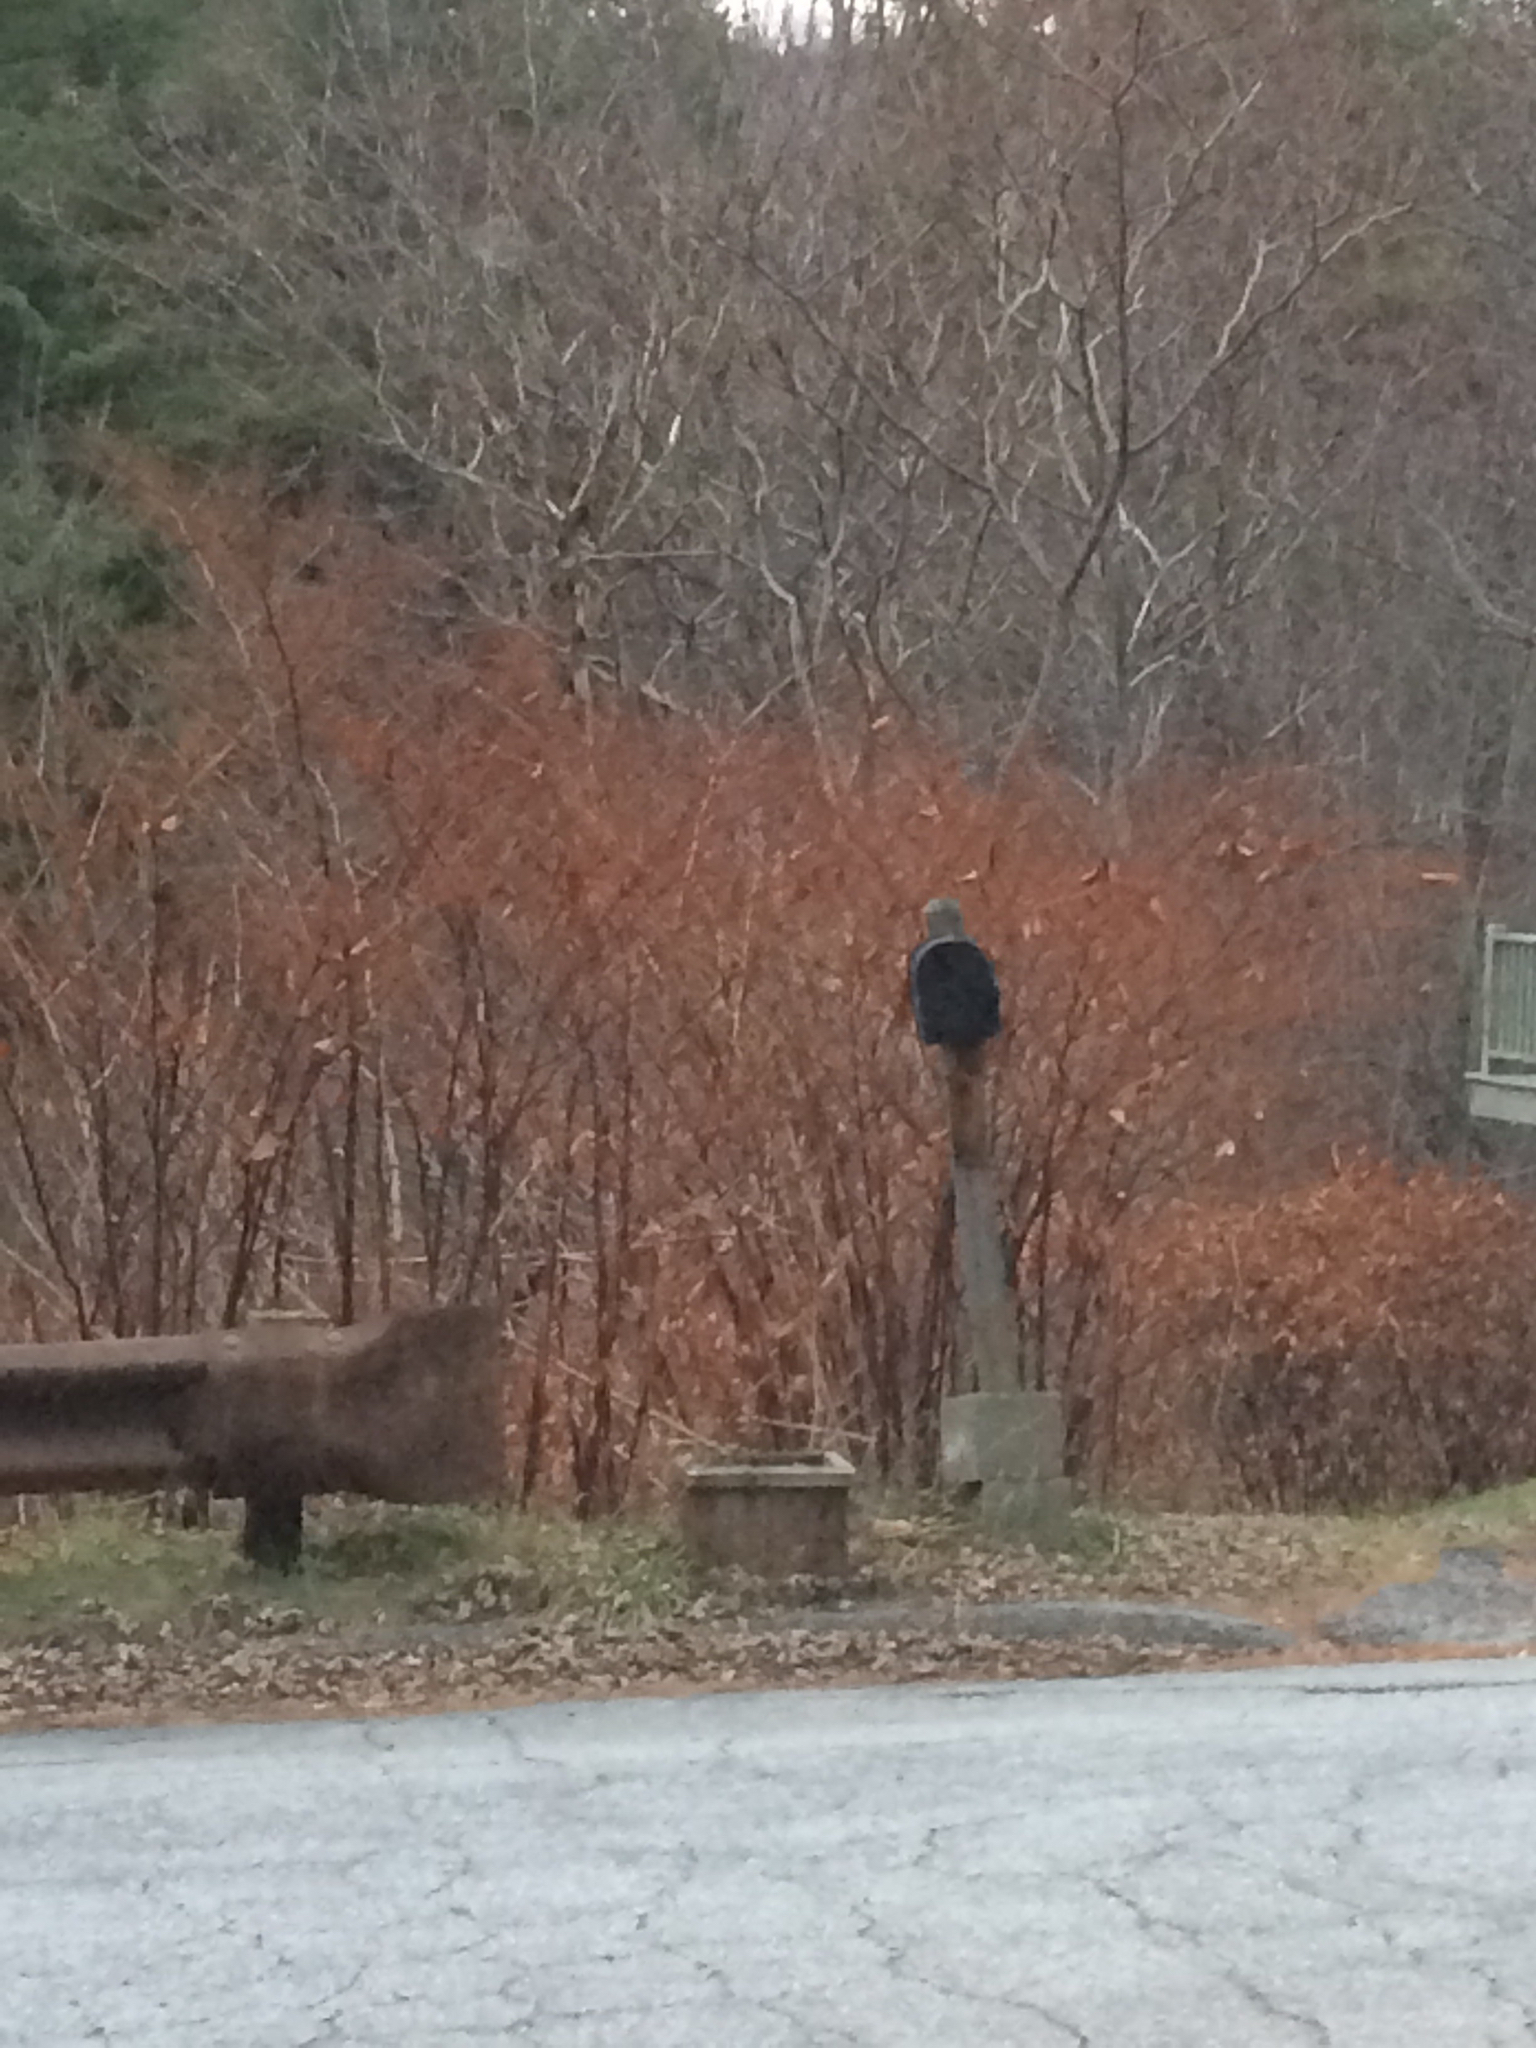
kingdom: Plantae
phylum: Tracheophyta
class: Magnoliopsida
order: Caryophyllales
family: Polygonaceae
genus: Reynoutria
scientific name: Reynoutria japonica
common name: Japanese knotweed
